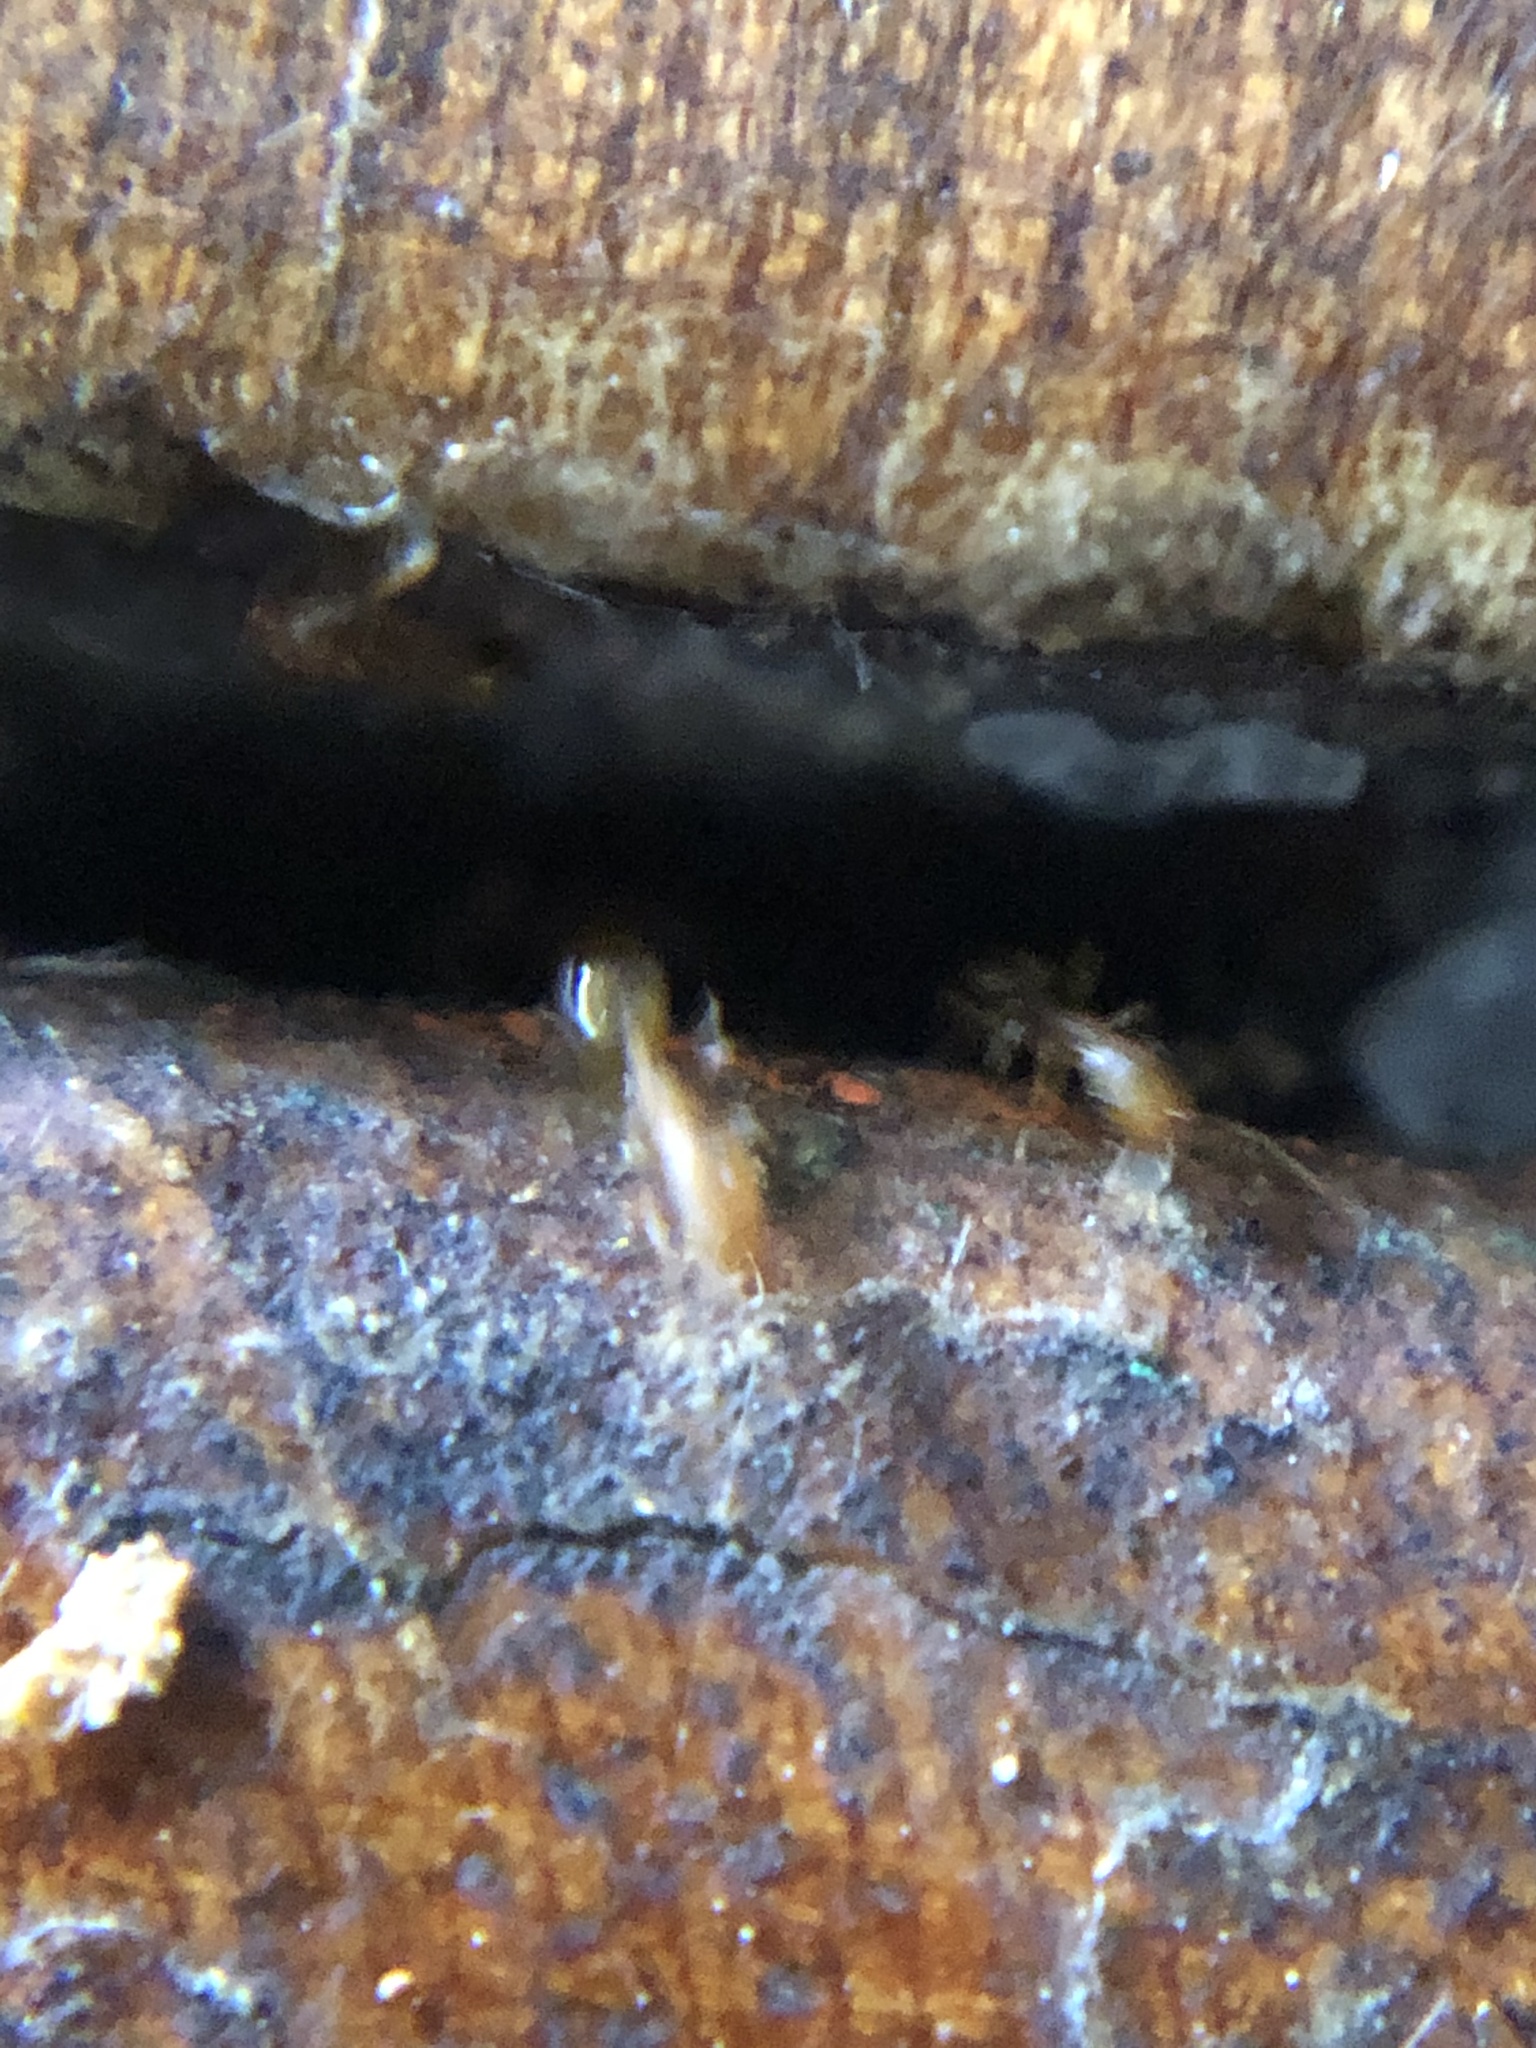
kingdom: Animalia
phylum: Arthropoda
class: Insecta
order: Hymenoptera
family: Formicidae
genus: Monomorium
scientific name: Monomorium pharaonis
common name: Pharaoh ant
